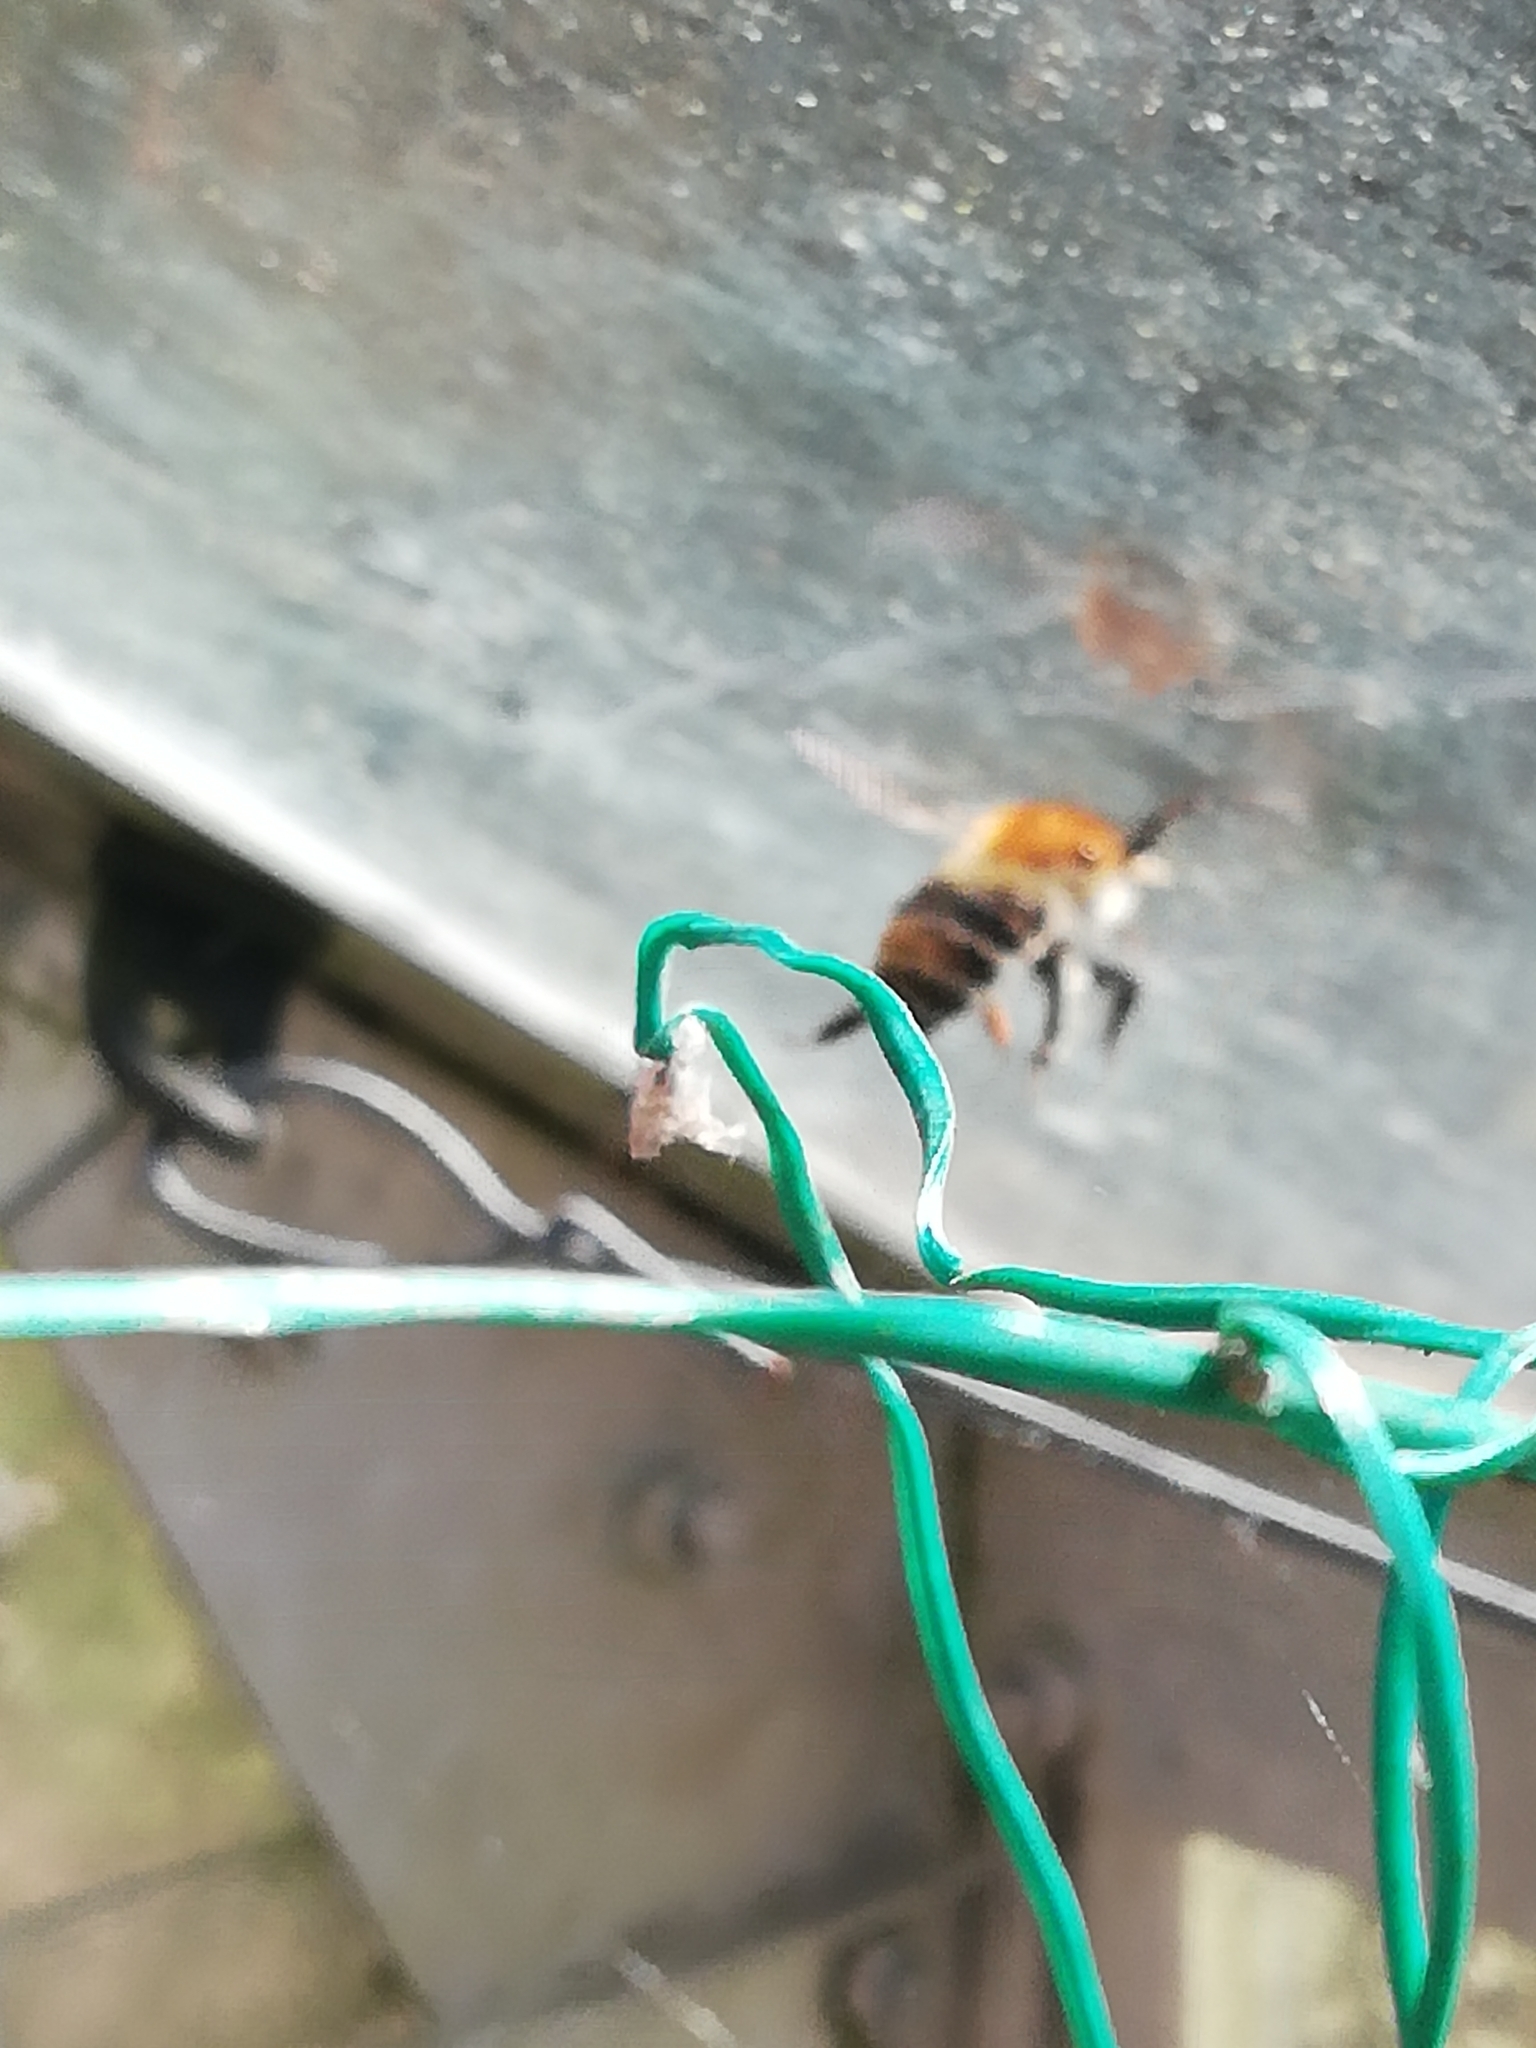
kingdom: Animalia
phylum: Arthropoda
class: Insecta
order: Hymenoptera
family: Apidae
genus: Bombus
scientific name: Bombus pascuorum
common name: Common carder bee
